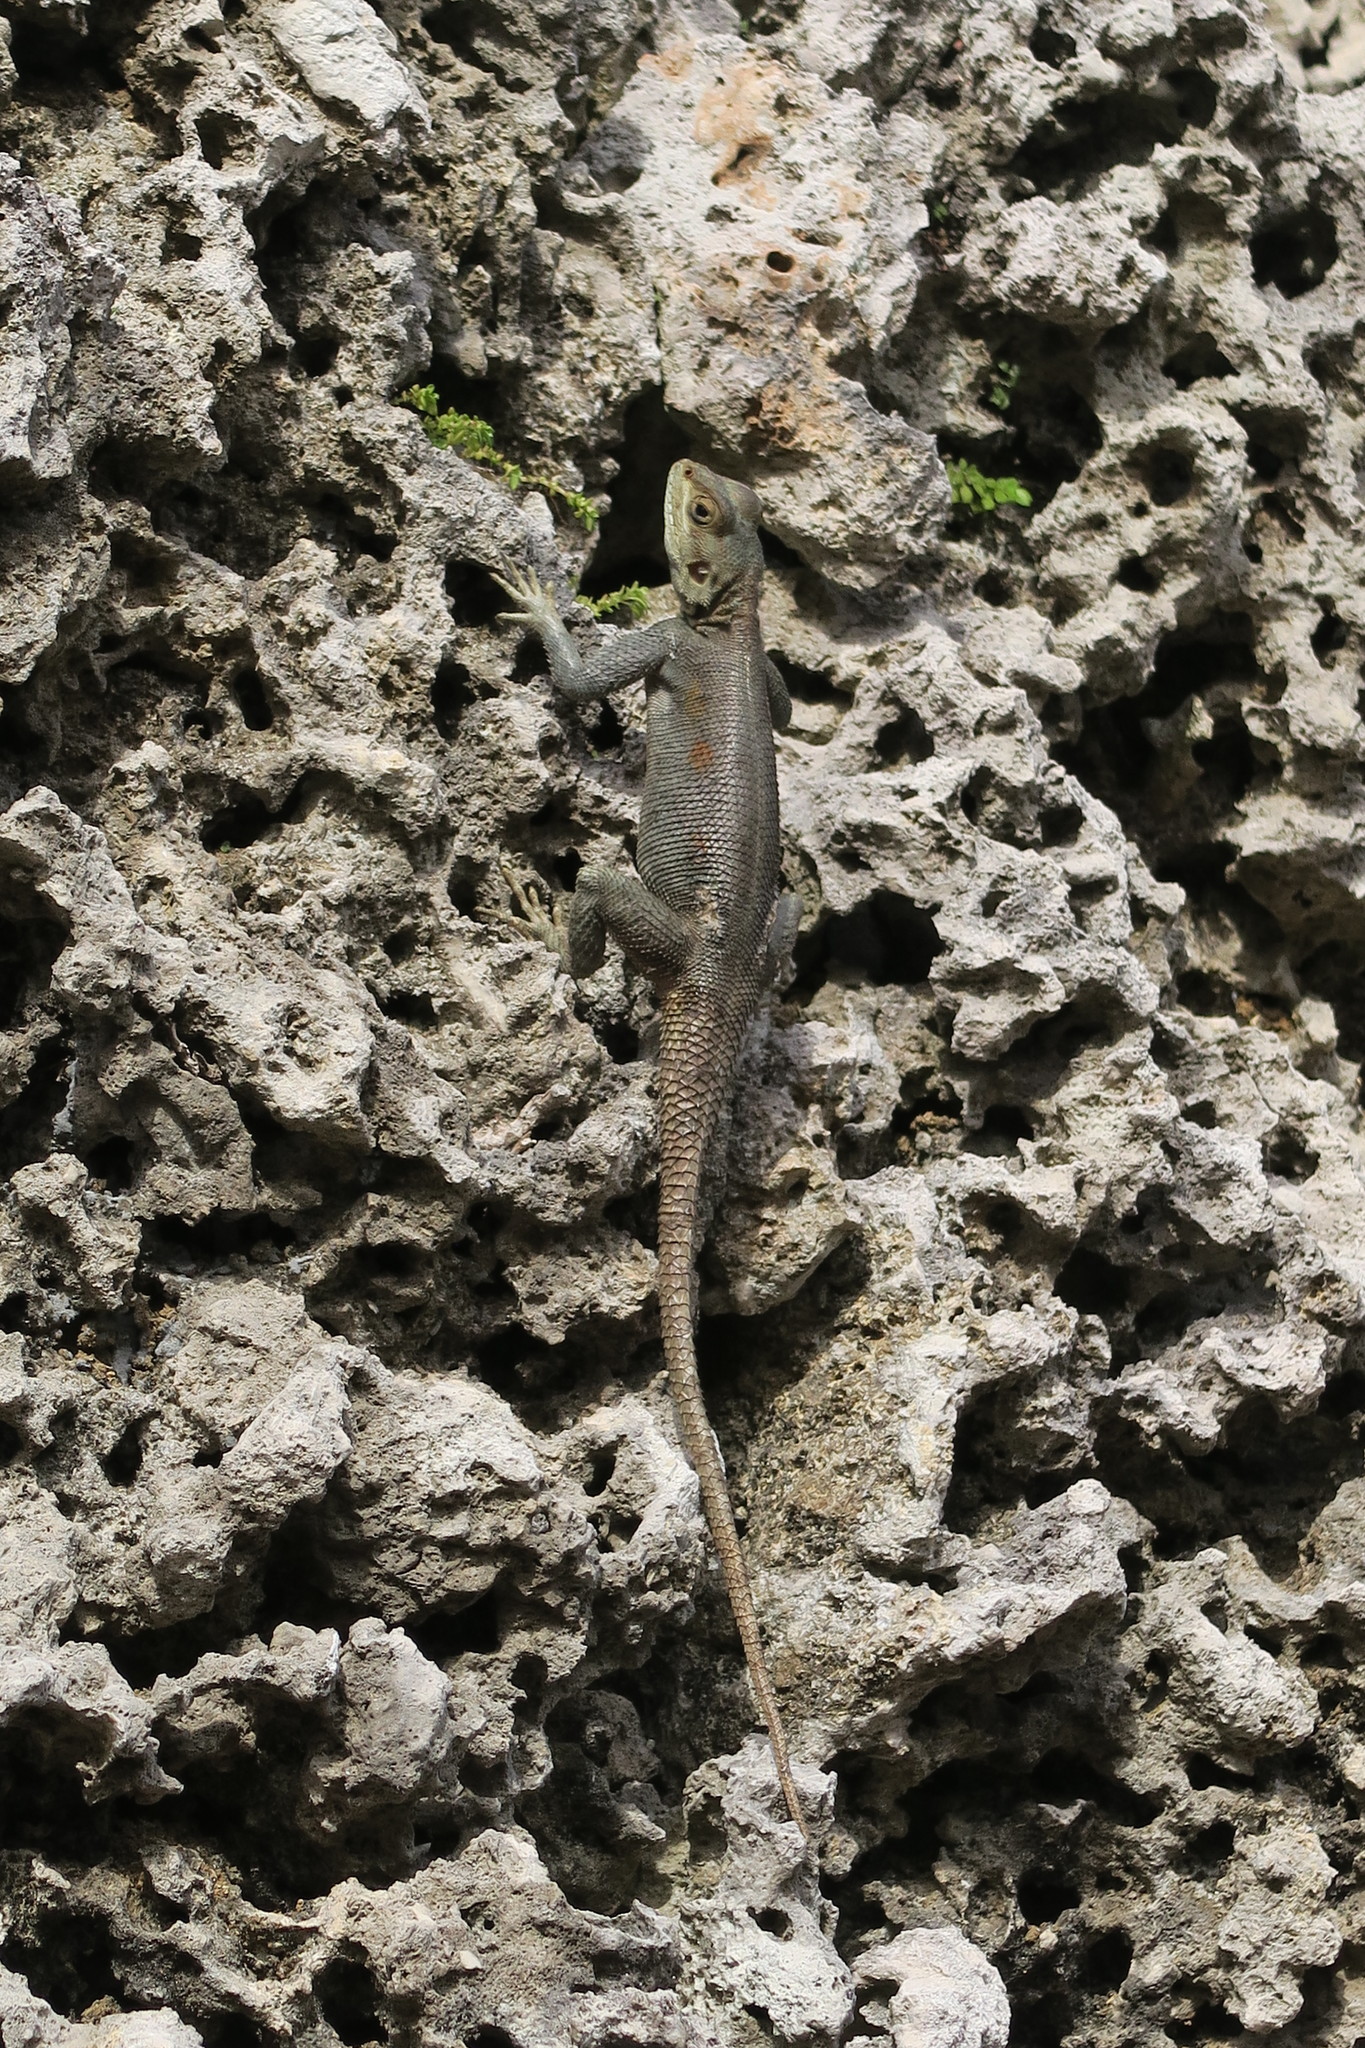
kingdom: Animalia
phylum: Chordata
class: Squamata
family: Agamidae
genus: Agama
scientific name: Agama picticauda
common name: Red-headed agama
